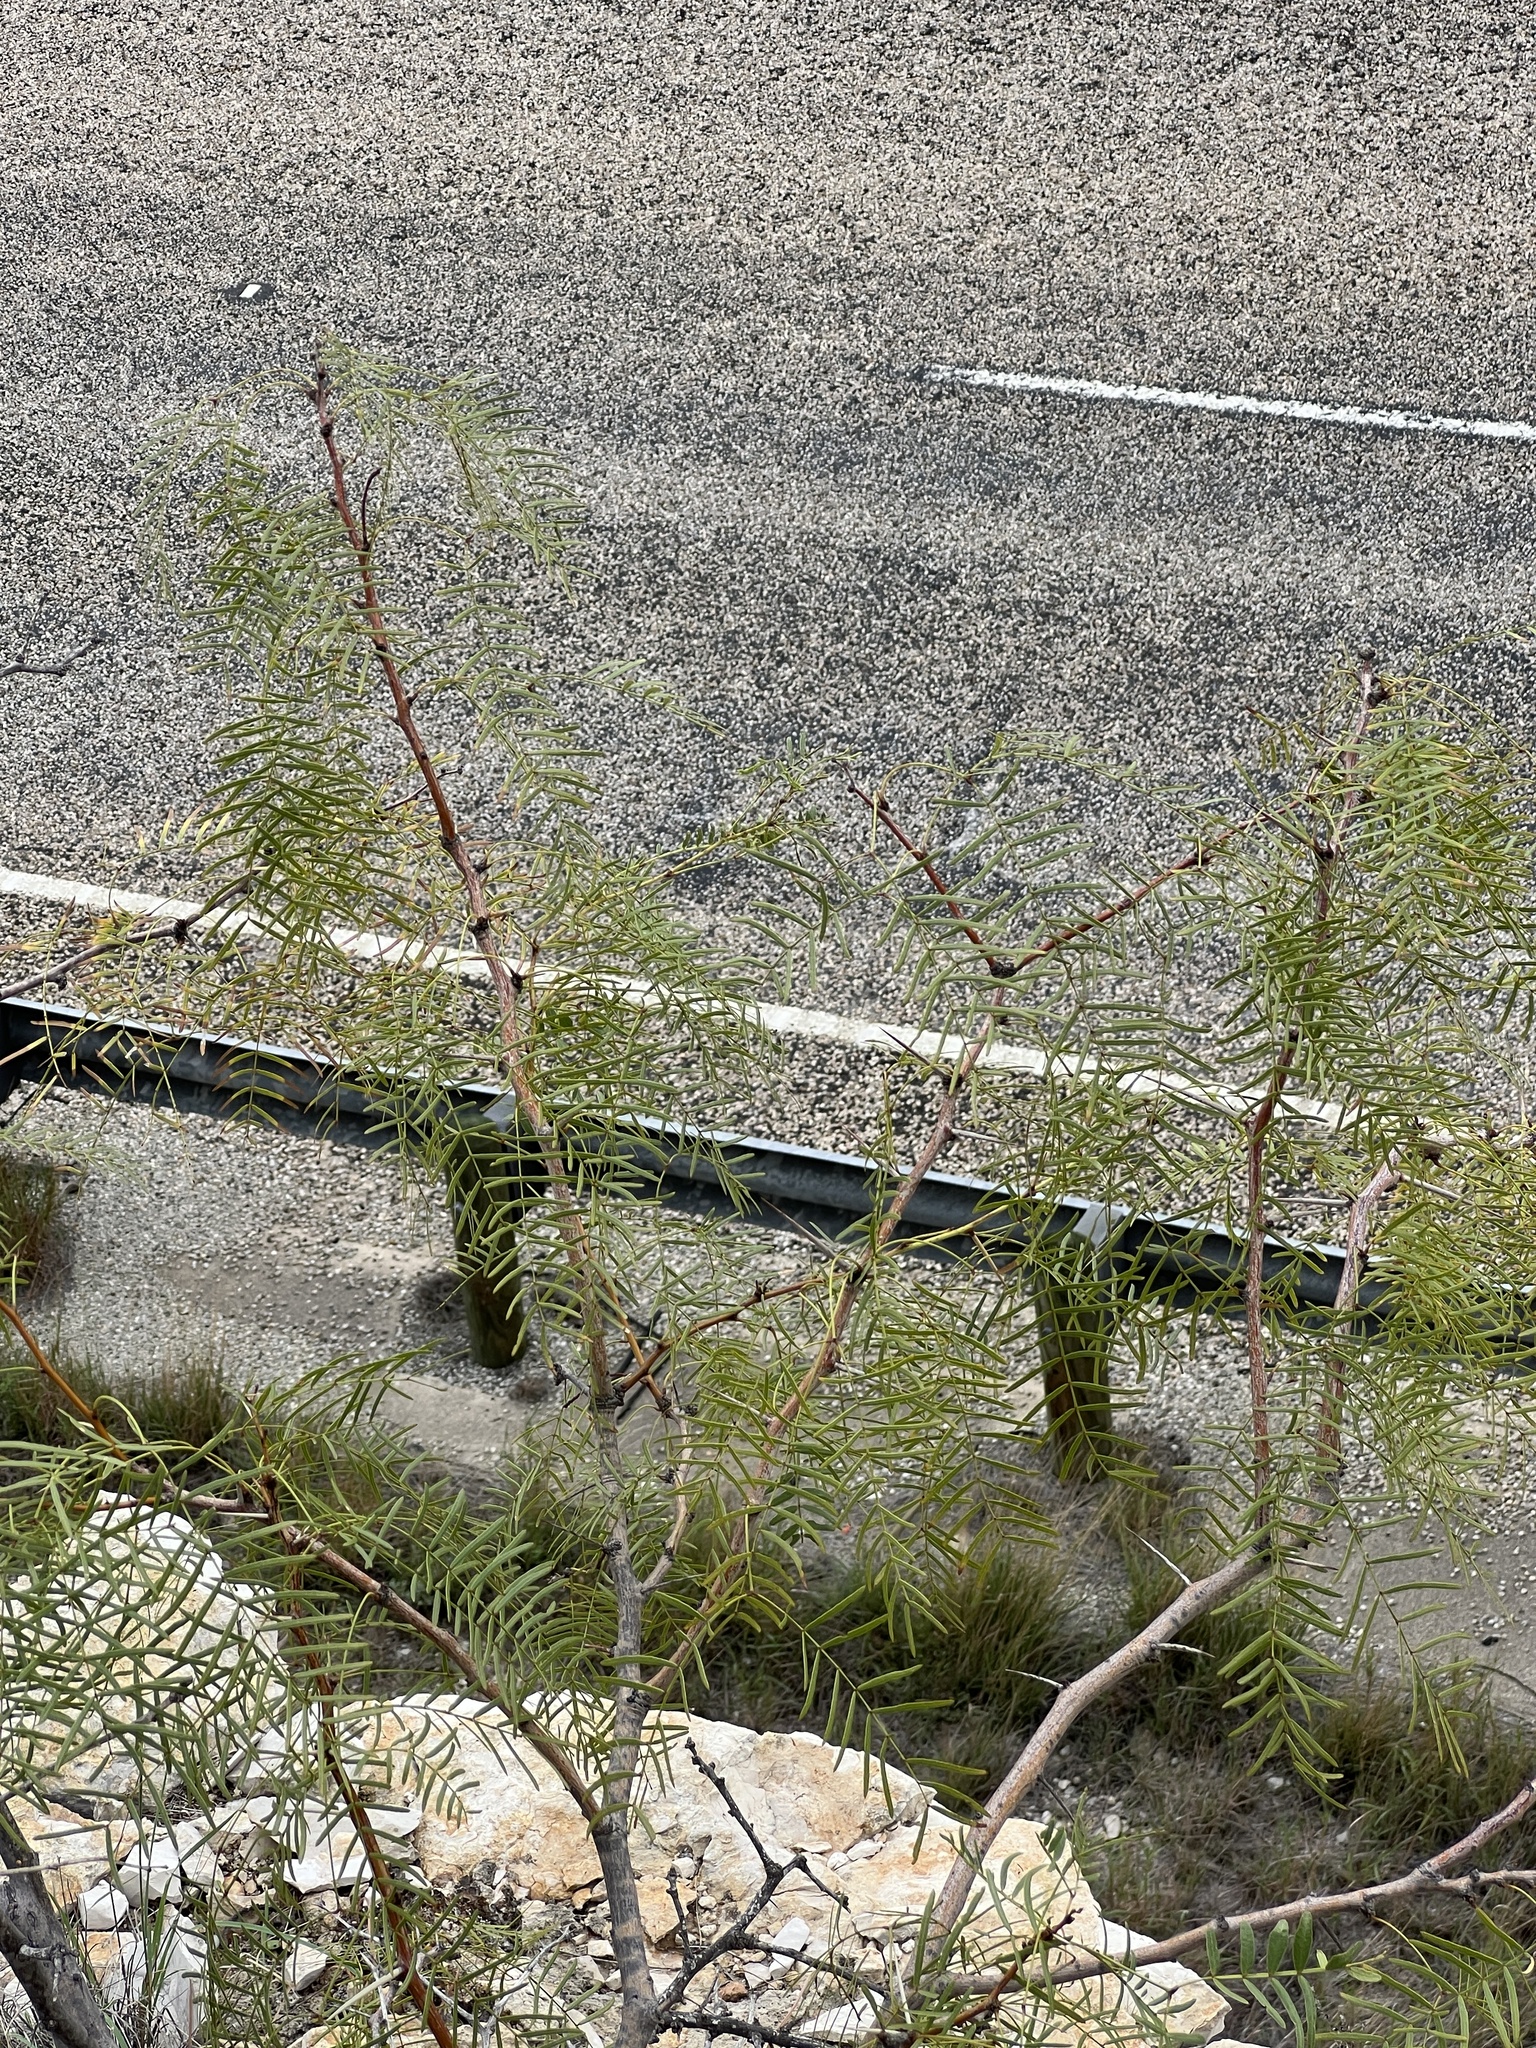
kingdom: Plantae
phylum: Tracheophyta
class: Magnoliopsida
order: Fabales
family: Fabaceae
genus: Prosopis
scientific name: Prosopis glandulosa
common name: Honey mesquite
